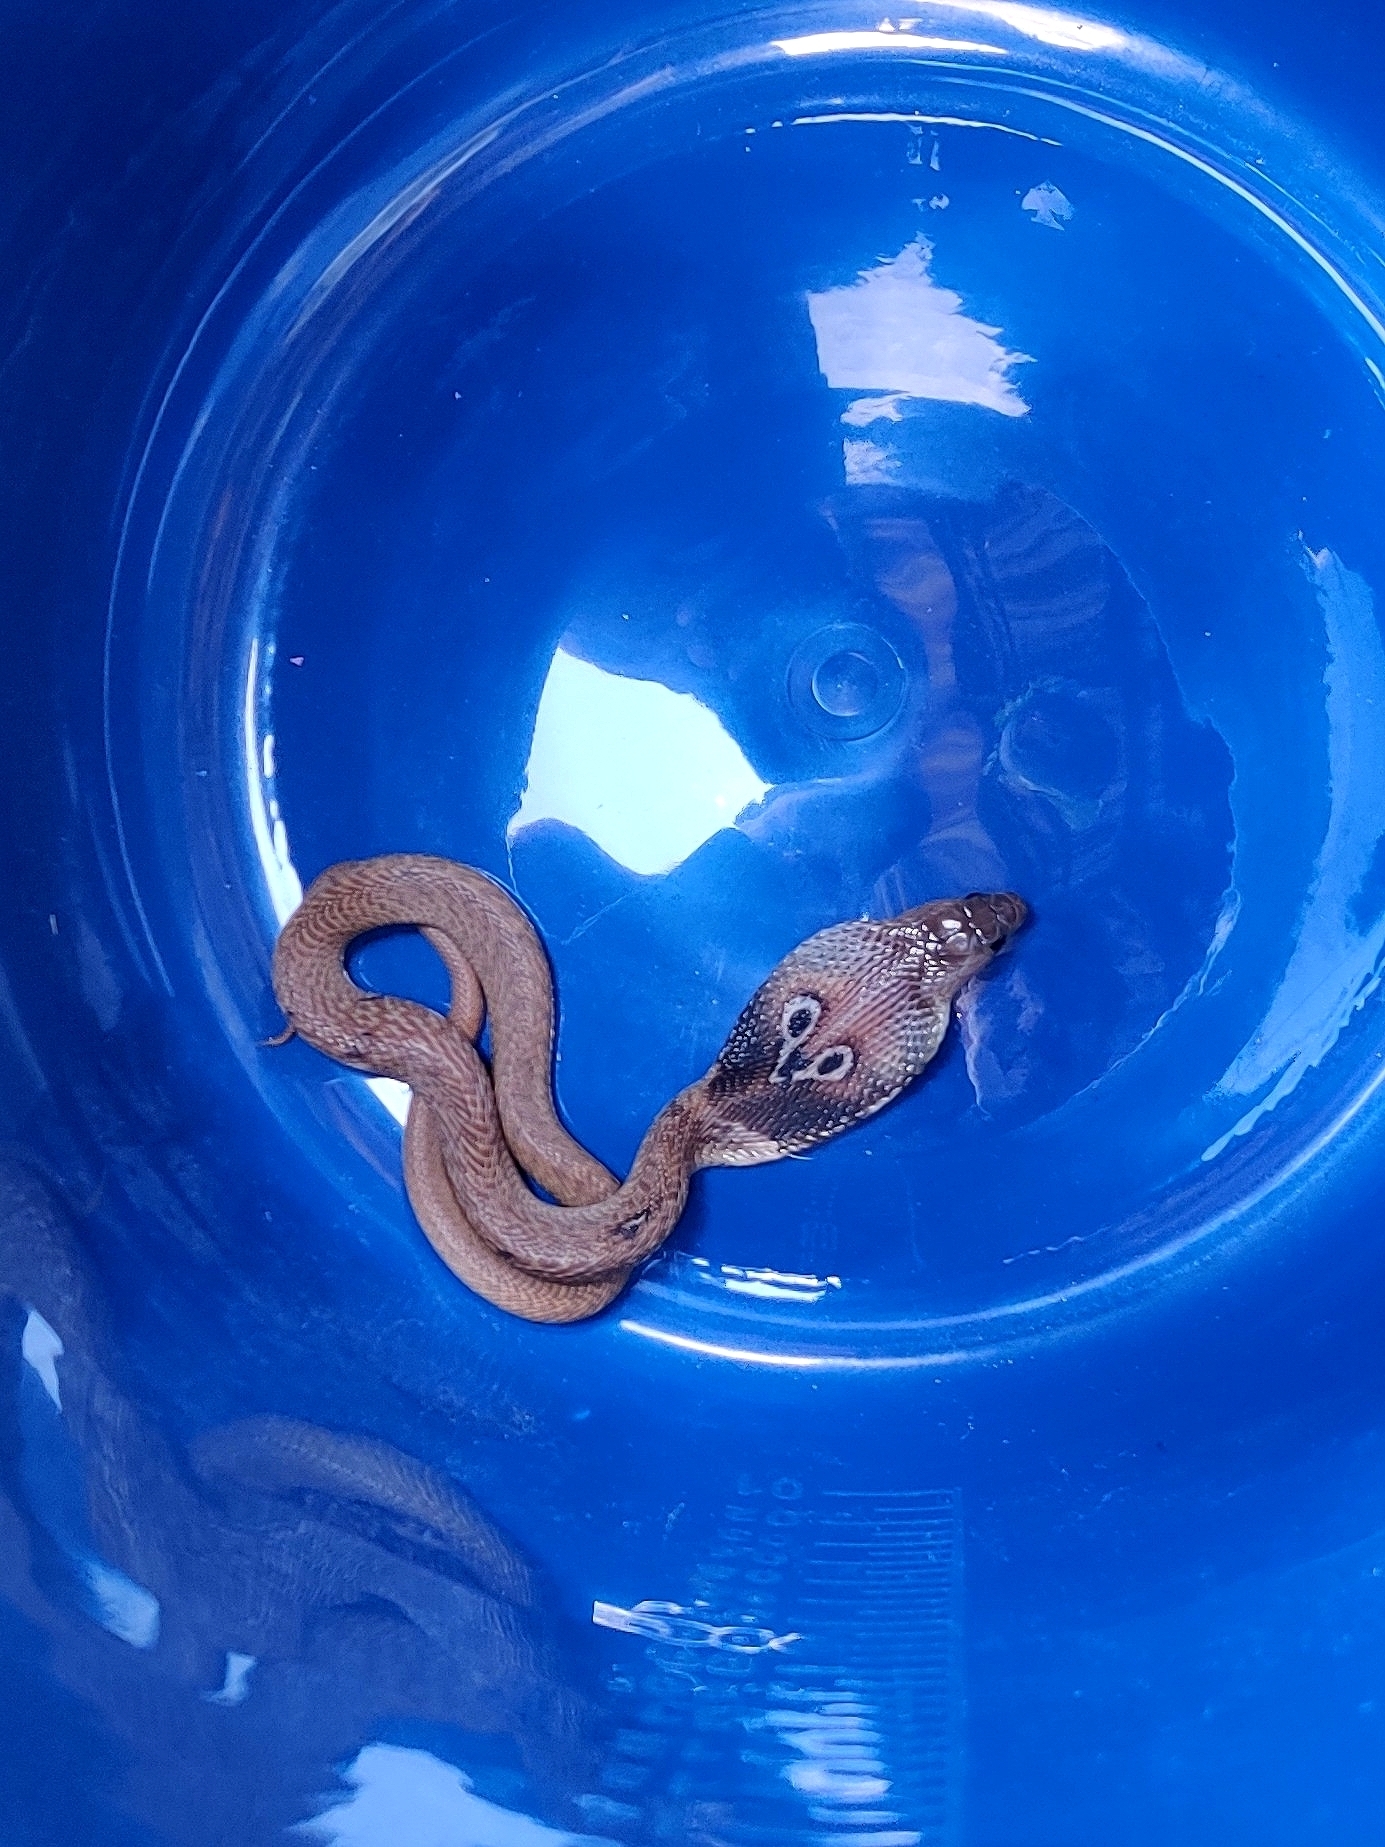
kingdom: Animalia
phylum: Chordata
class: Squamata
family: Elapidae
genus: Naja
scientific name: Naja naja
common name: Indian cobra
